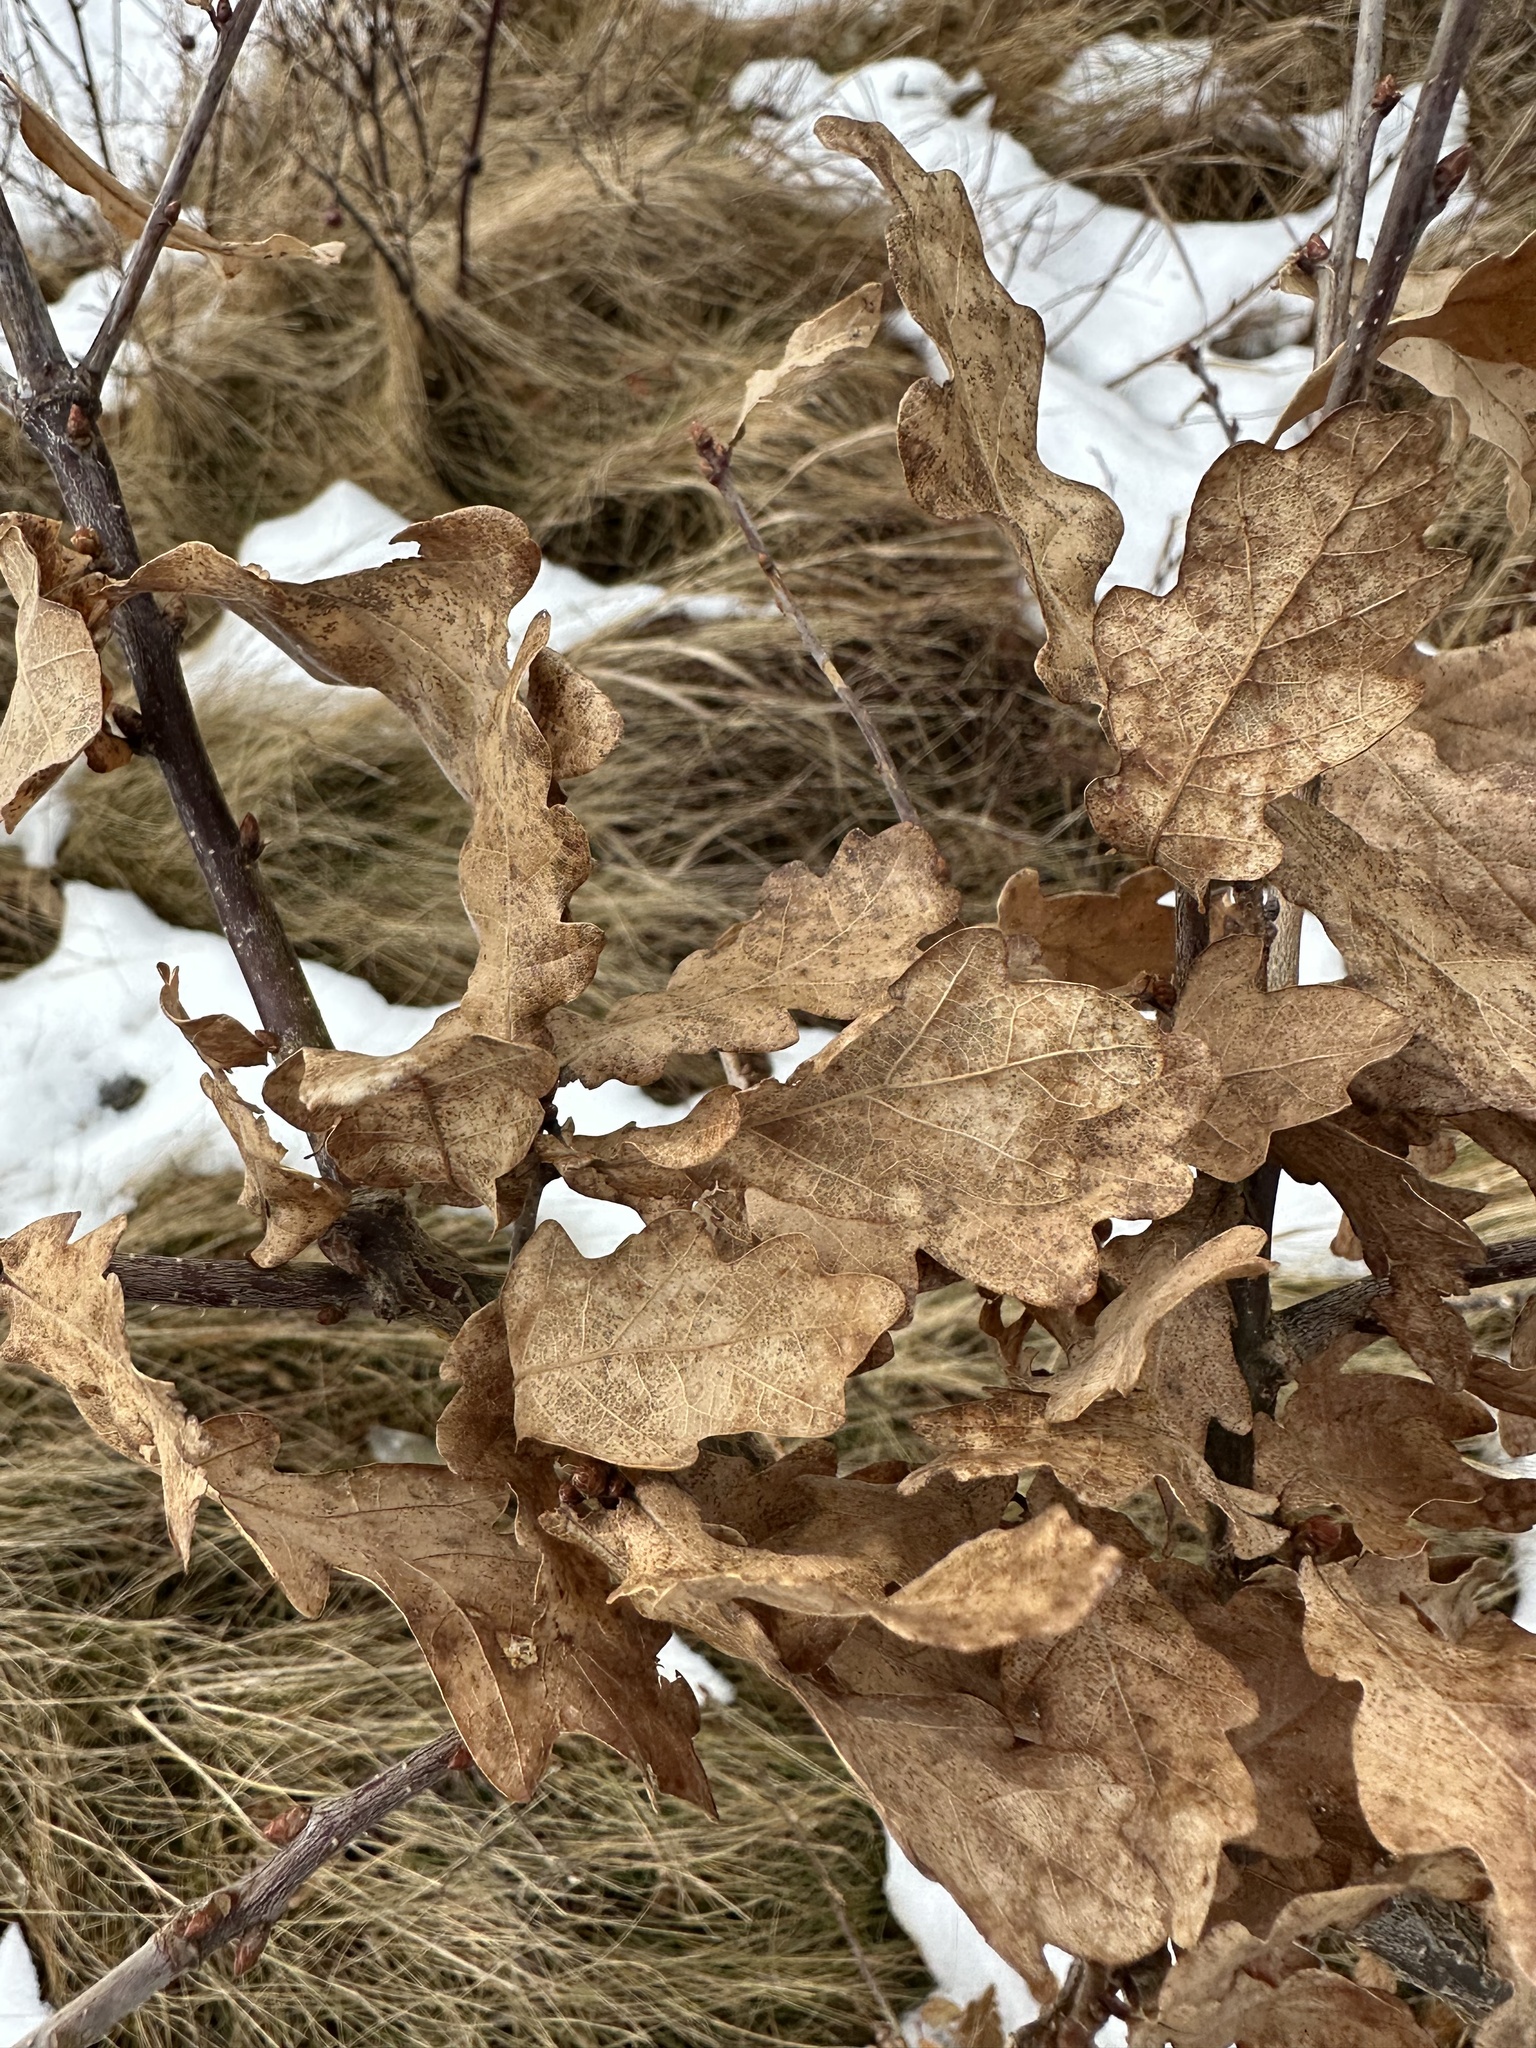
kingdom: Plantae
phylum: Tracheophyta
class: Magnoliopsida
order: Fagales
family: Fagaceae
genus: Quercus
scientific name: Quercus robur
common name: Pedunculate oak
